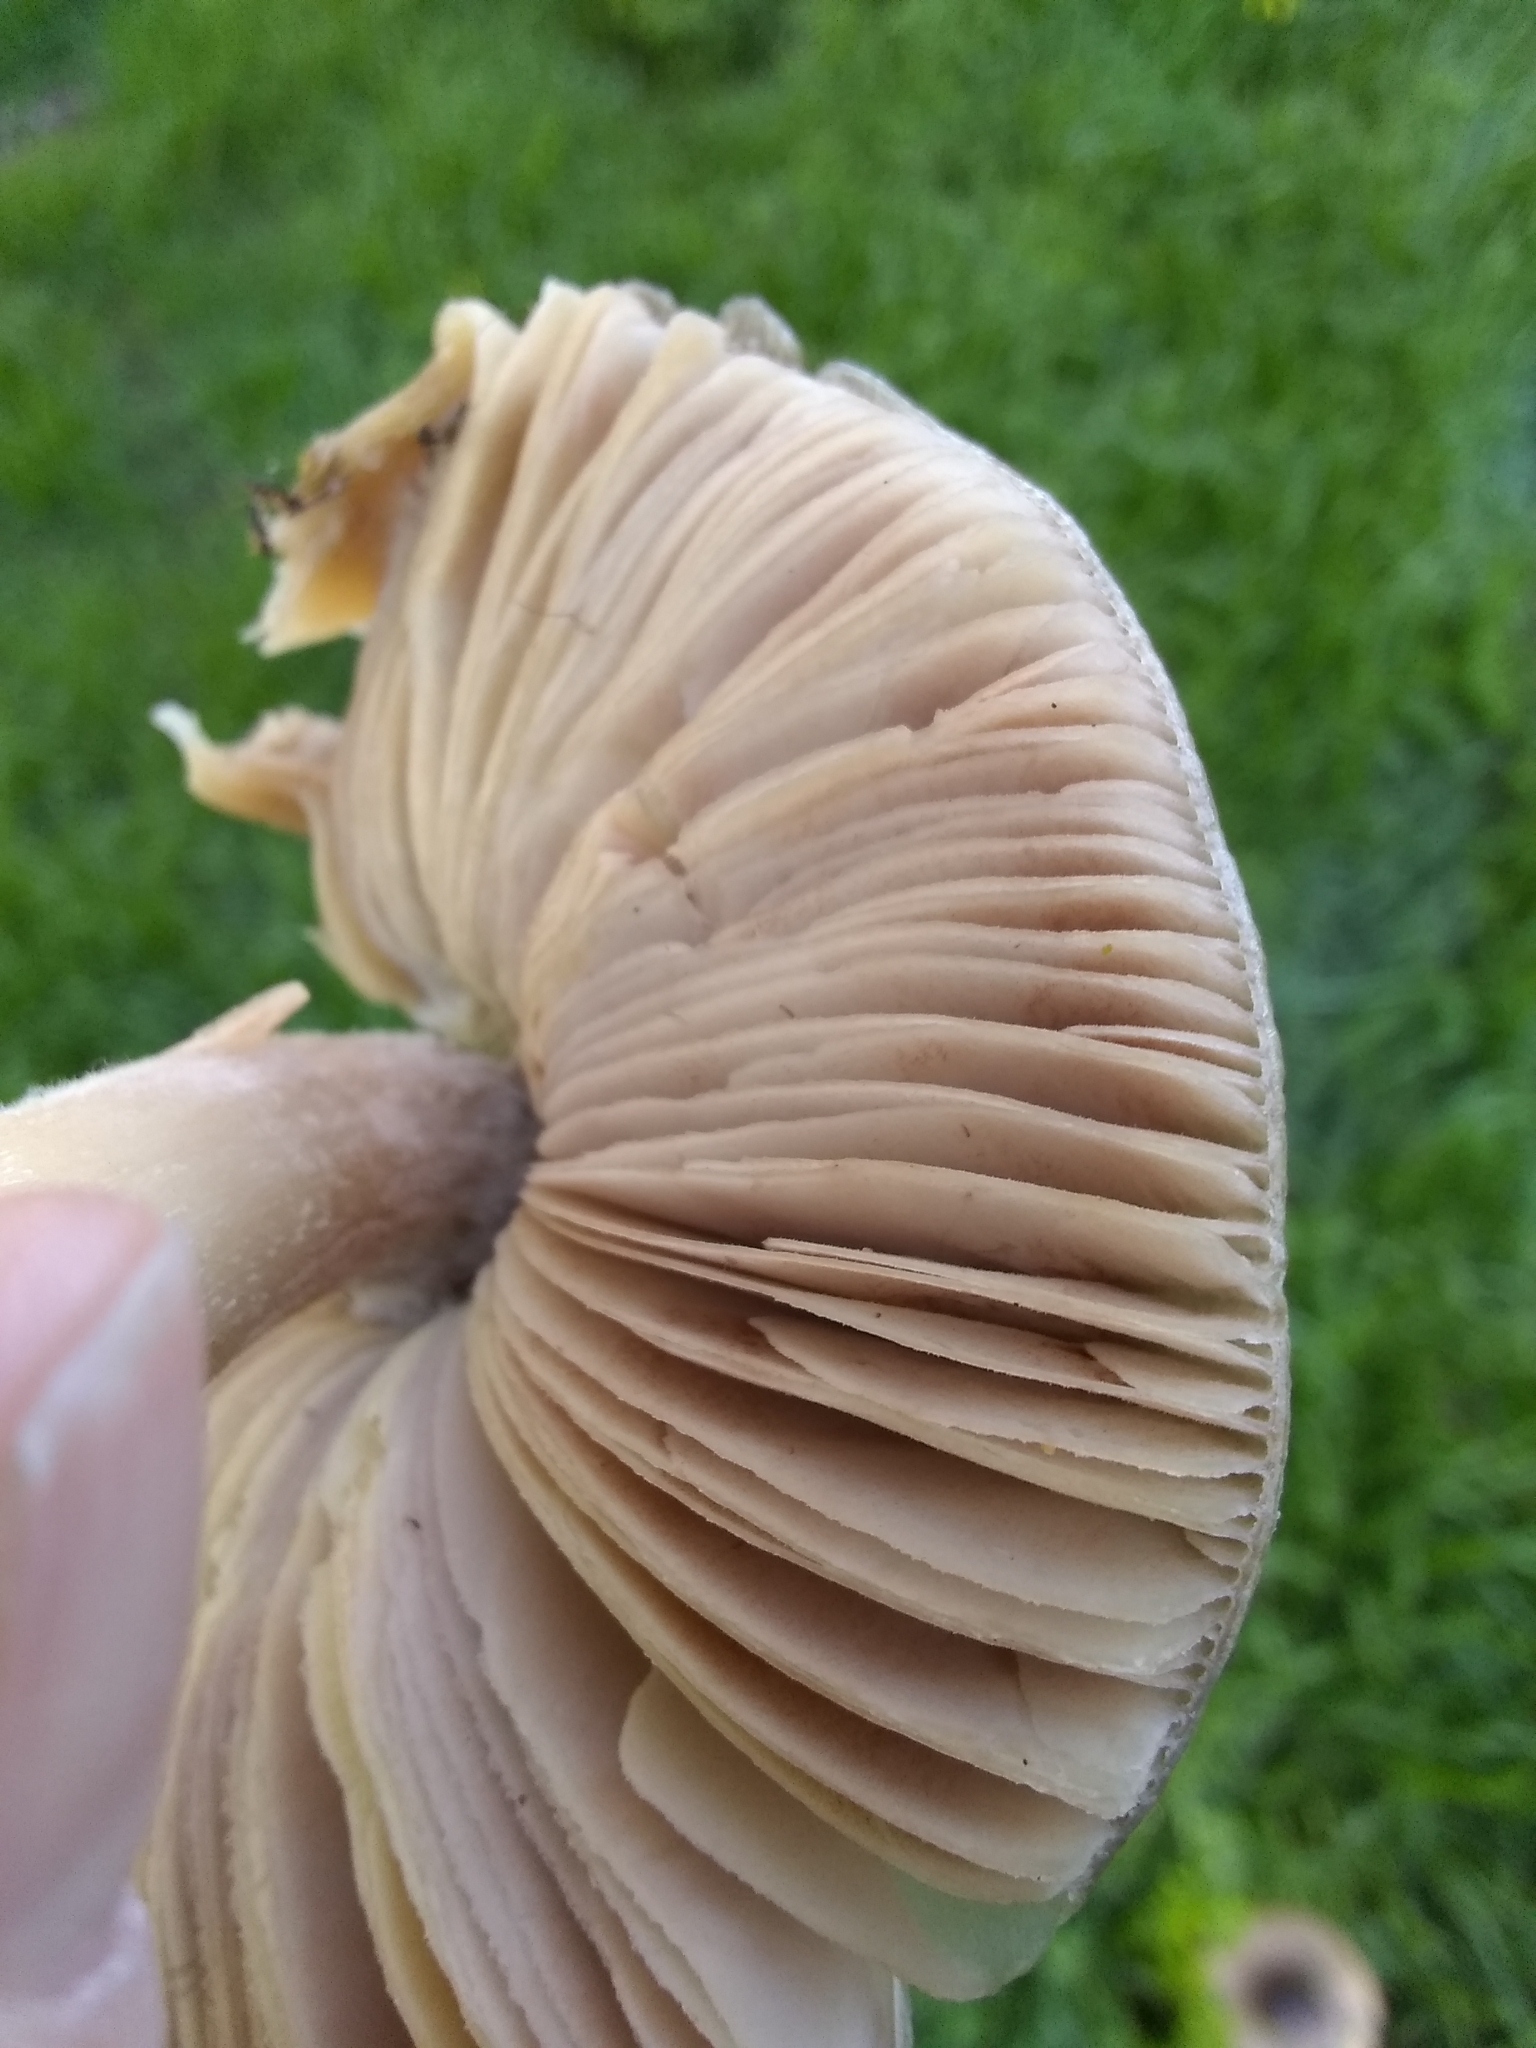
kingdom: Fungi
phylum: Basidiomycota
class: Agaricomycetes
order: Agaricales
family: Pluteaceae
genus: Volvopluteus
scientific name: Volvopluteus gloiocephalus
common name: Stubble rosegill
